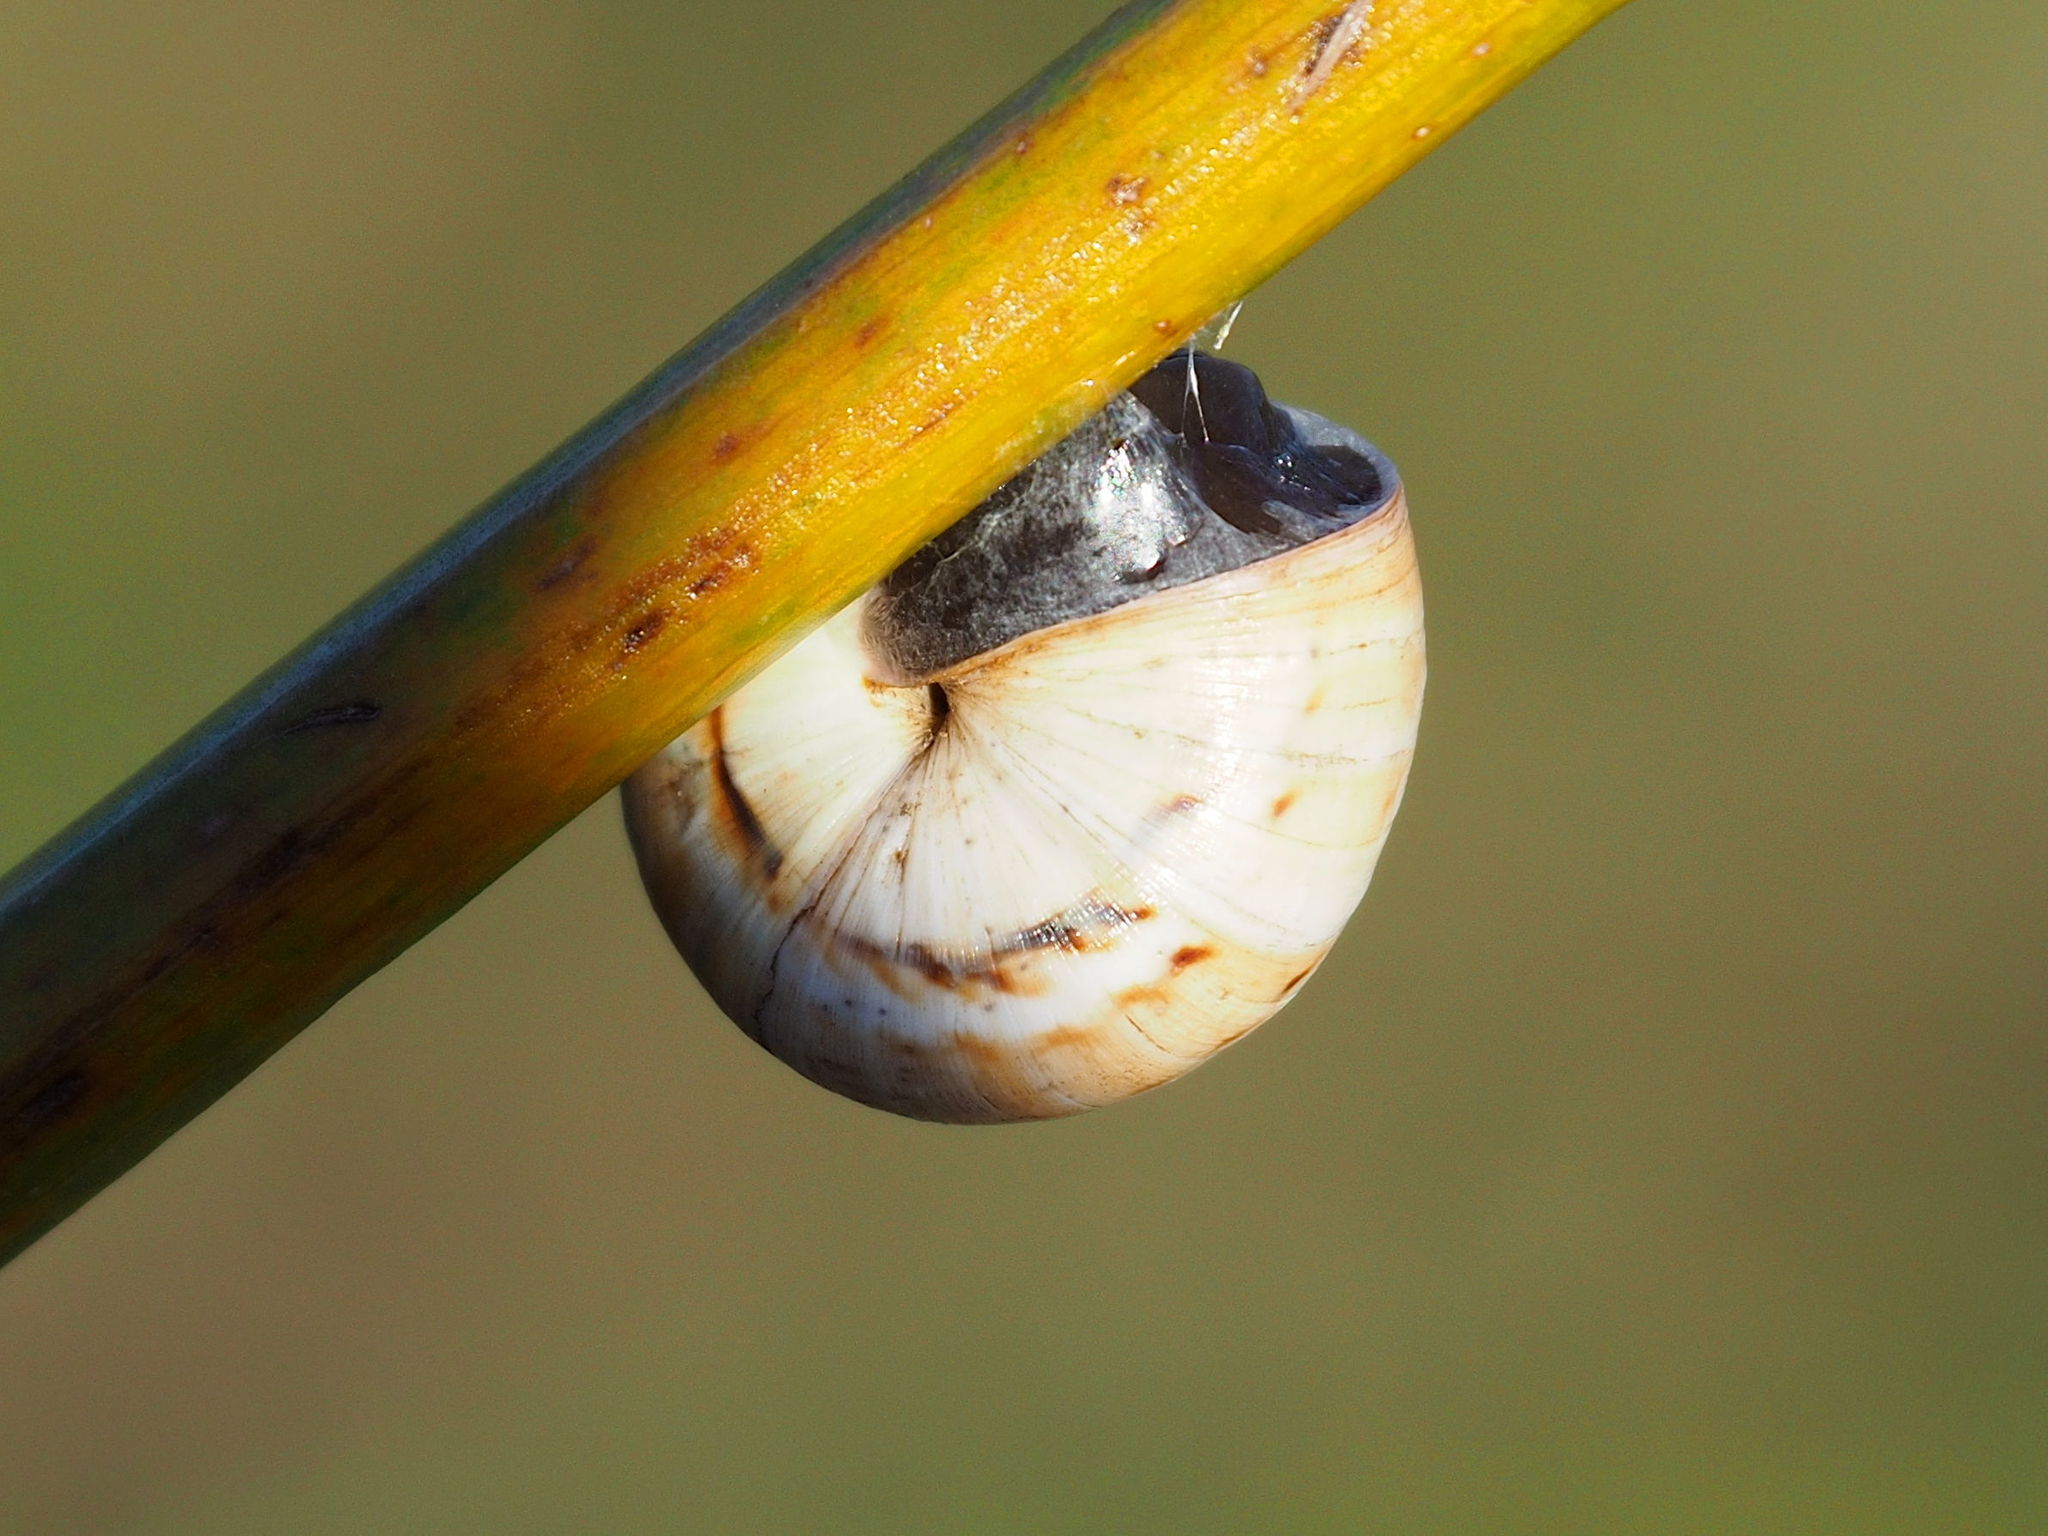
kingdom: Animalia
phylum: Mollusca
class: Gastropoda
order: Stylommatophora
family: Helicidae
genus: Theba
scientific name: Theba pisana
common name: White snail
